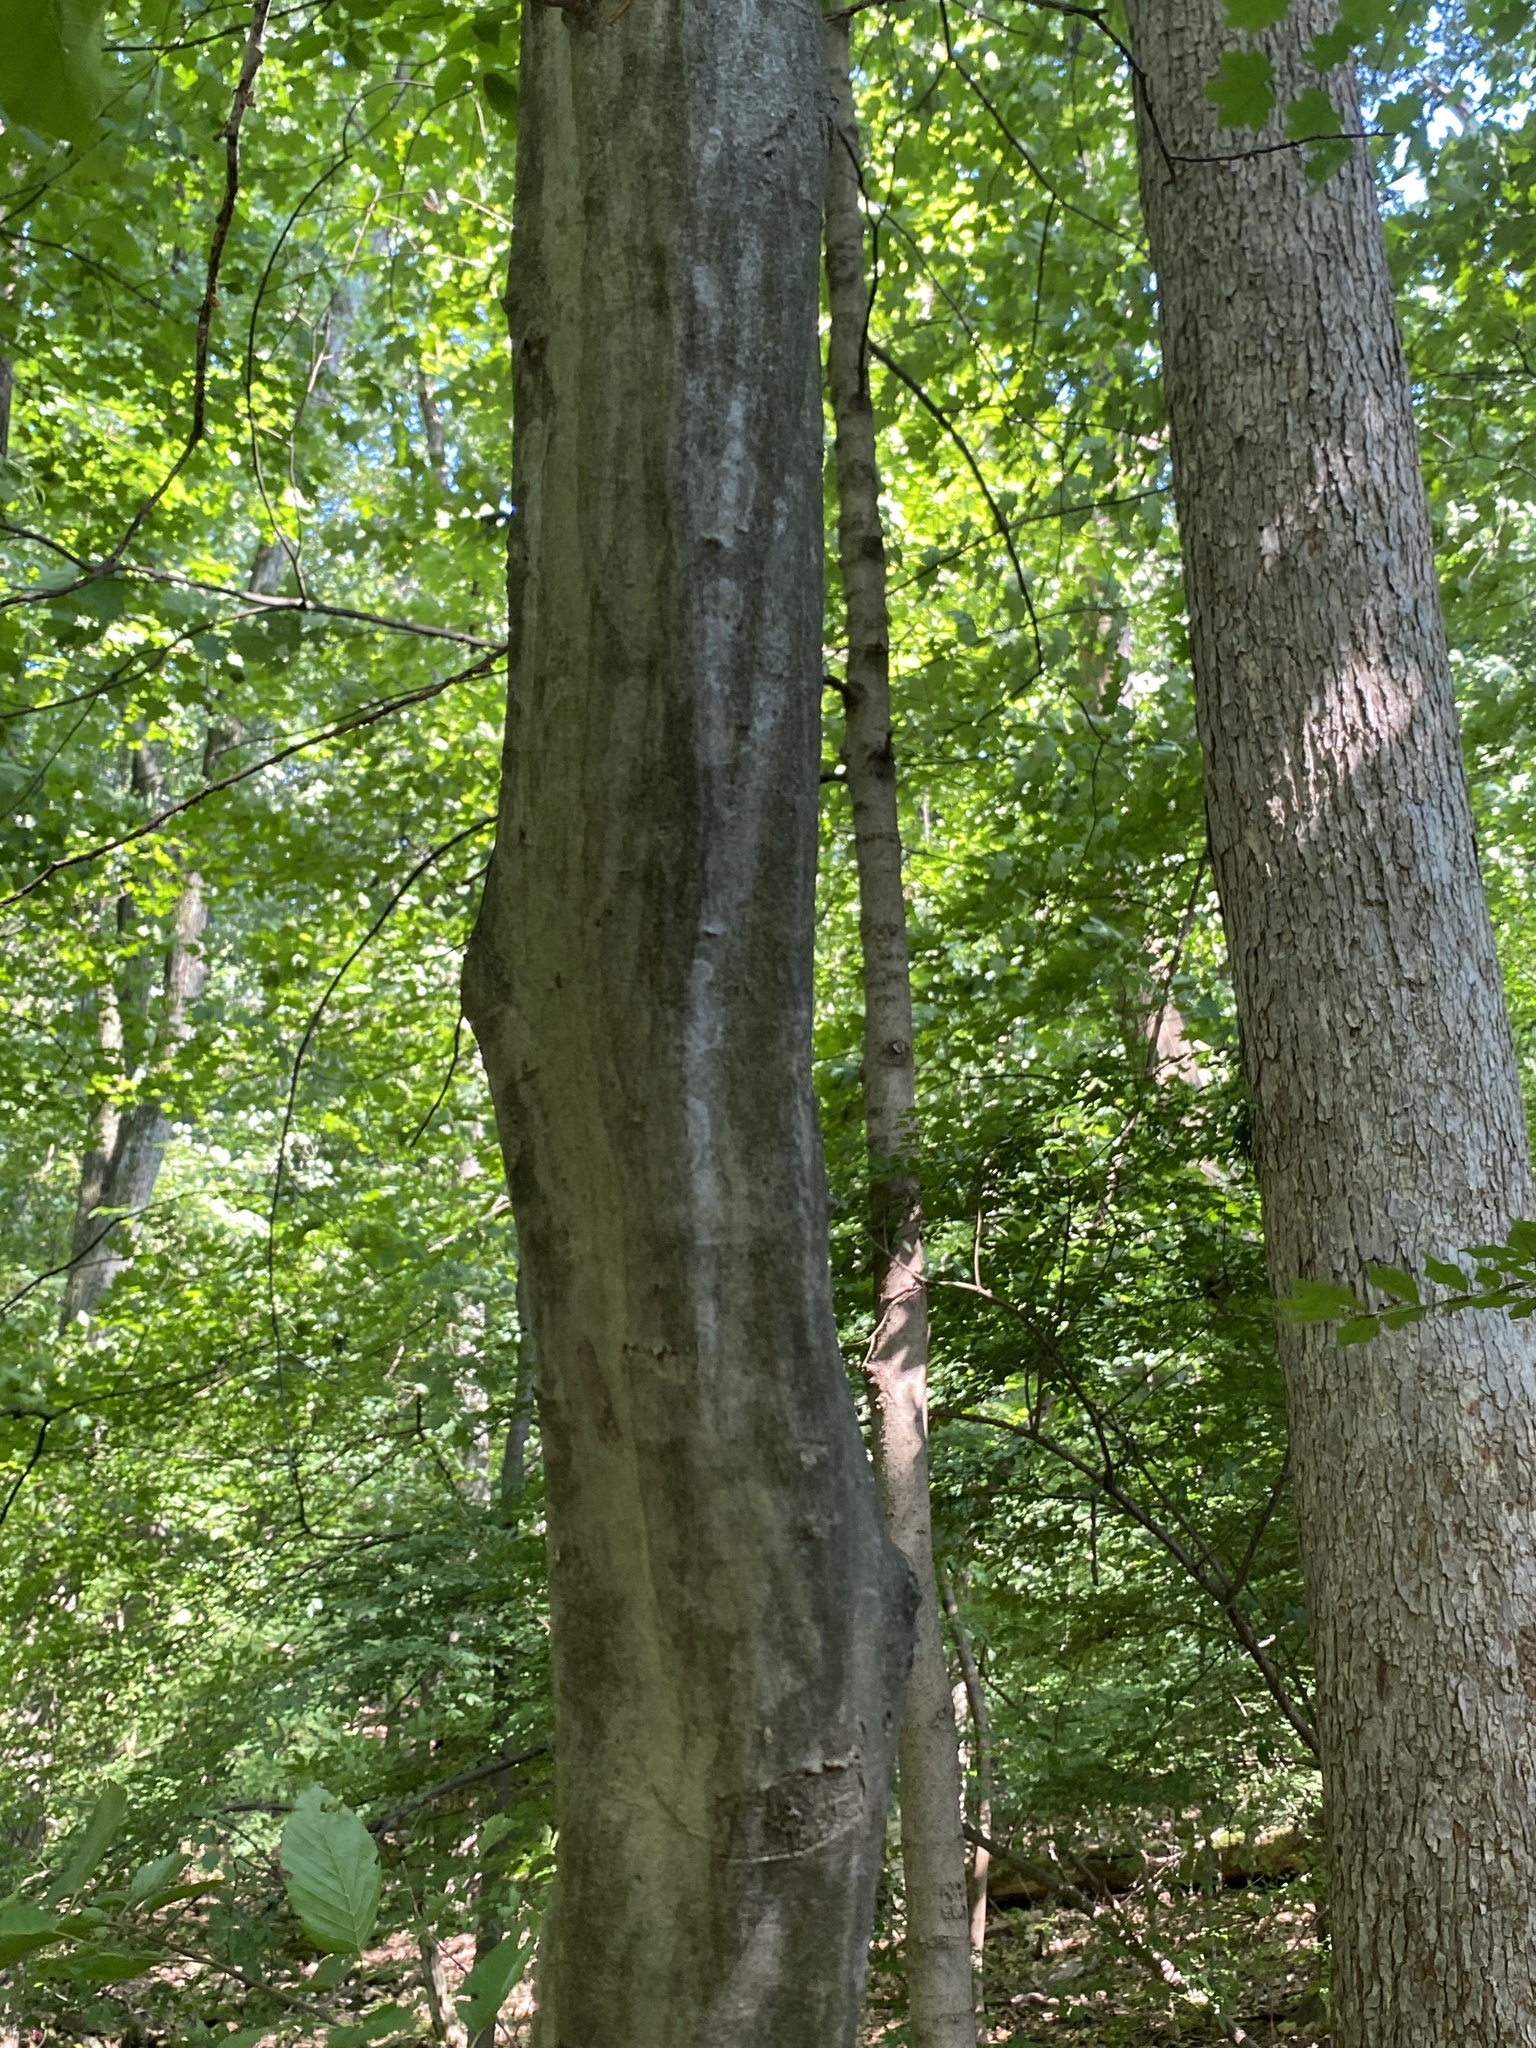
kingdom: Plantae
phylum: Tracheophyta
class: Magnoliopsida
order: Fagales
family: Betulaceae
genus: Carpinus
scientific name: Carpinus caroliniana
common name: American hornbeam
